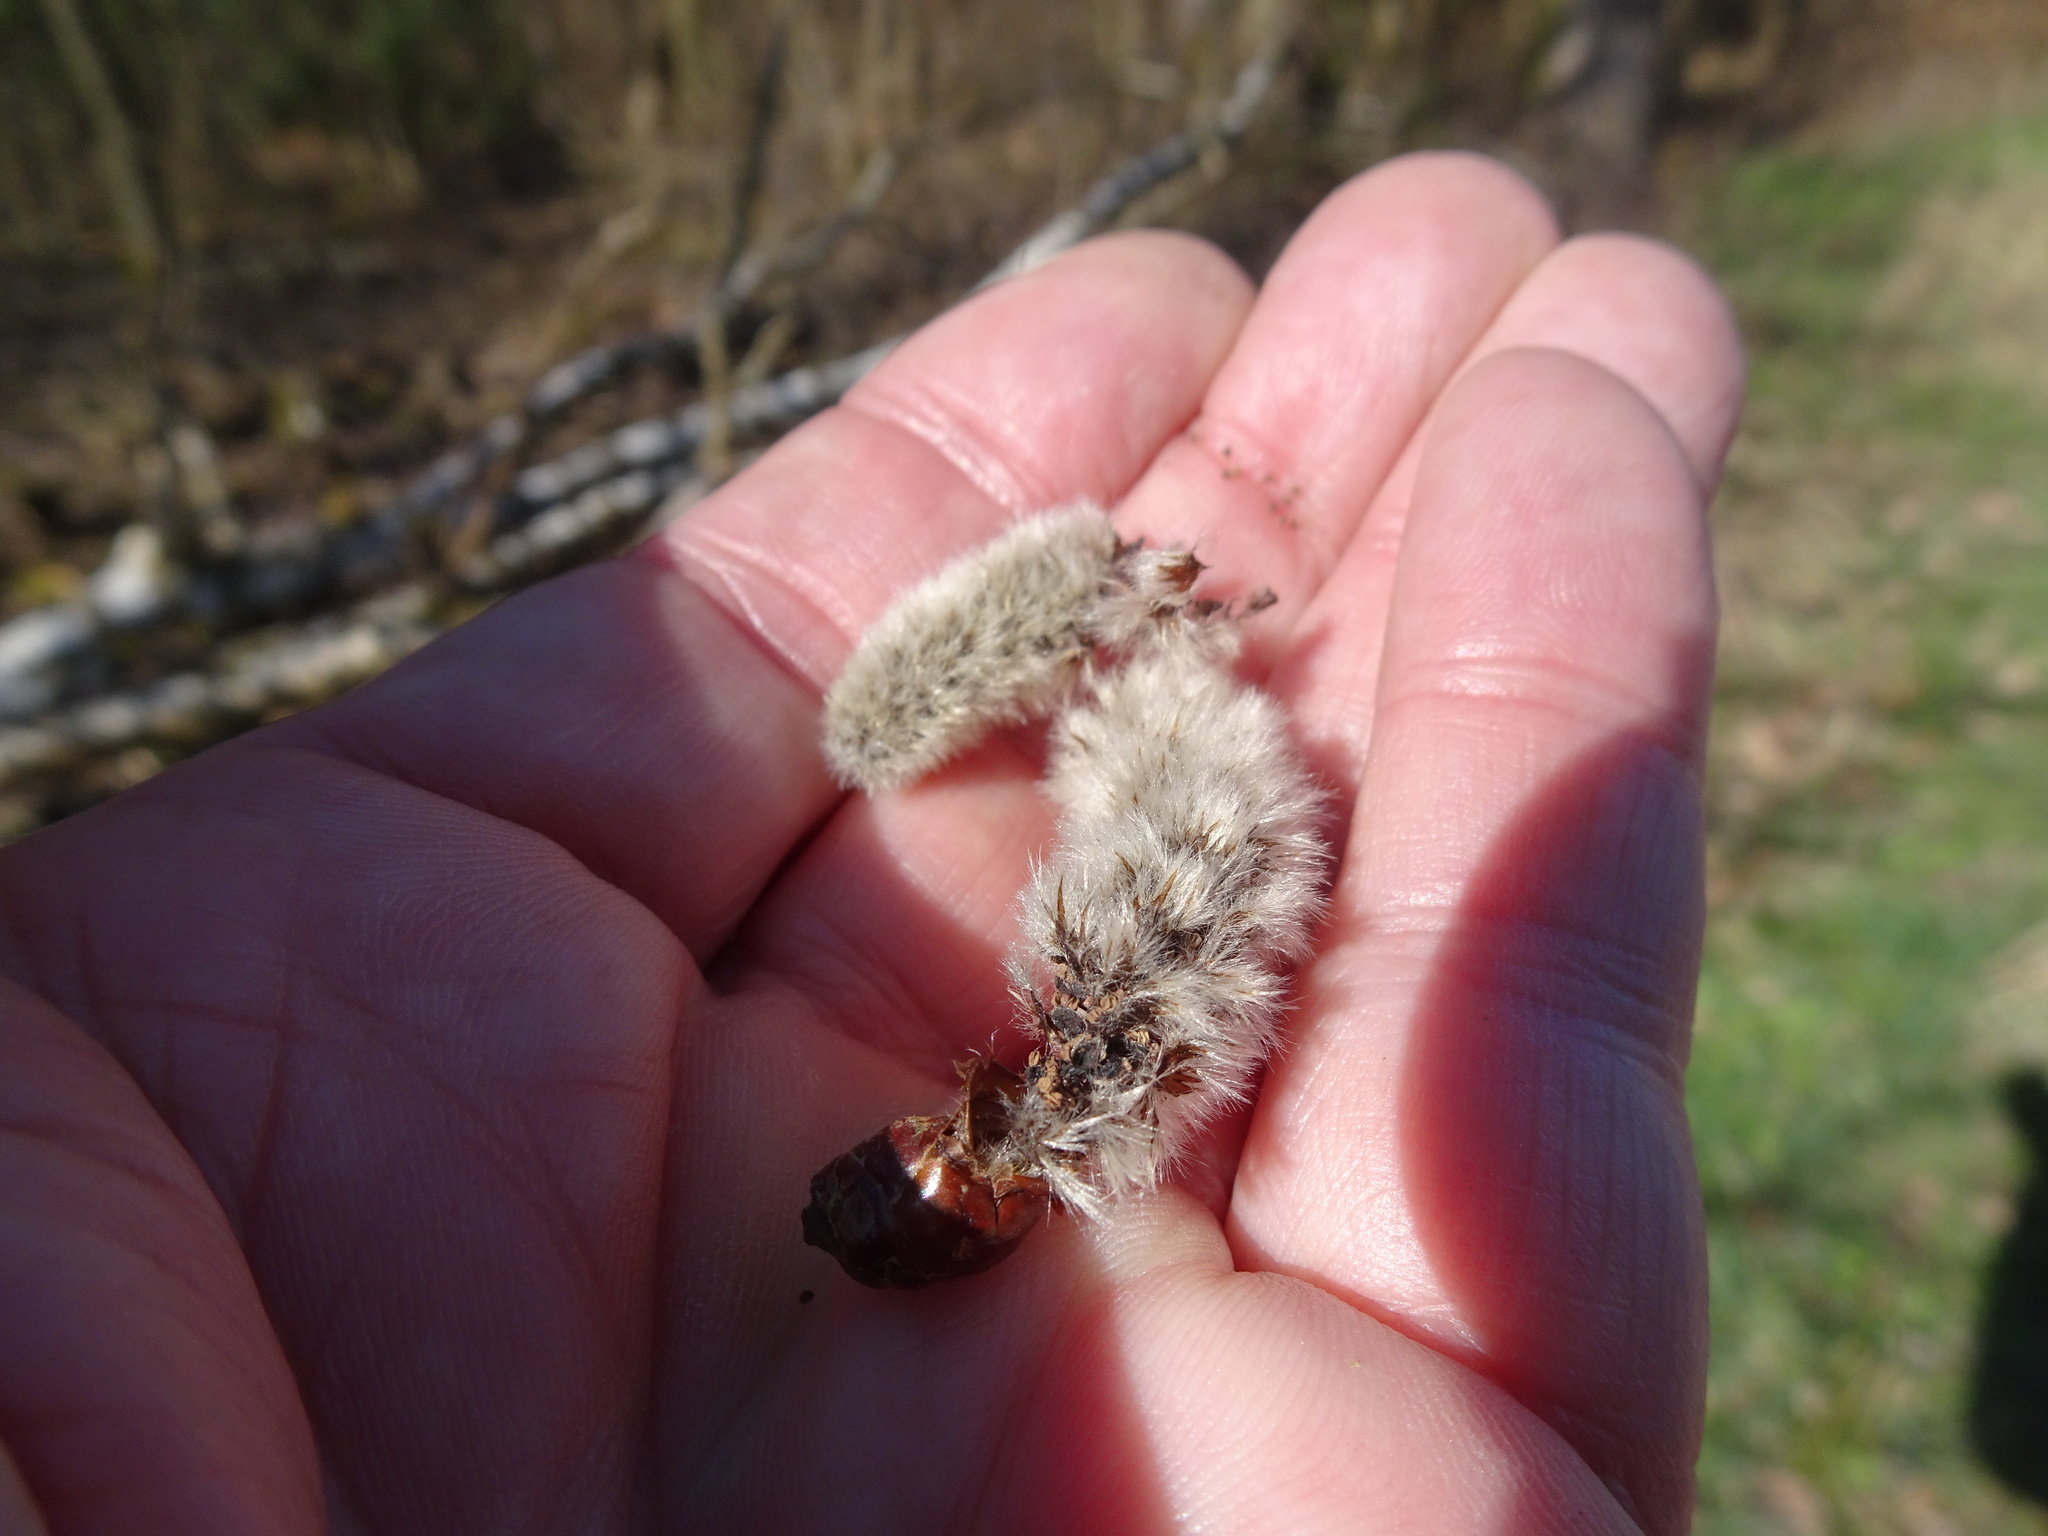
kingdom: Plantae
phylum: Tracheophyta
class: Magnoliopsida
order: Malpighiales
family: Salicaceae
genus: Populus
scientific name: Populus tremula
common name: European aspen
